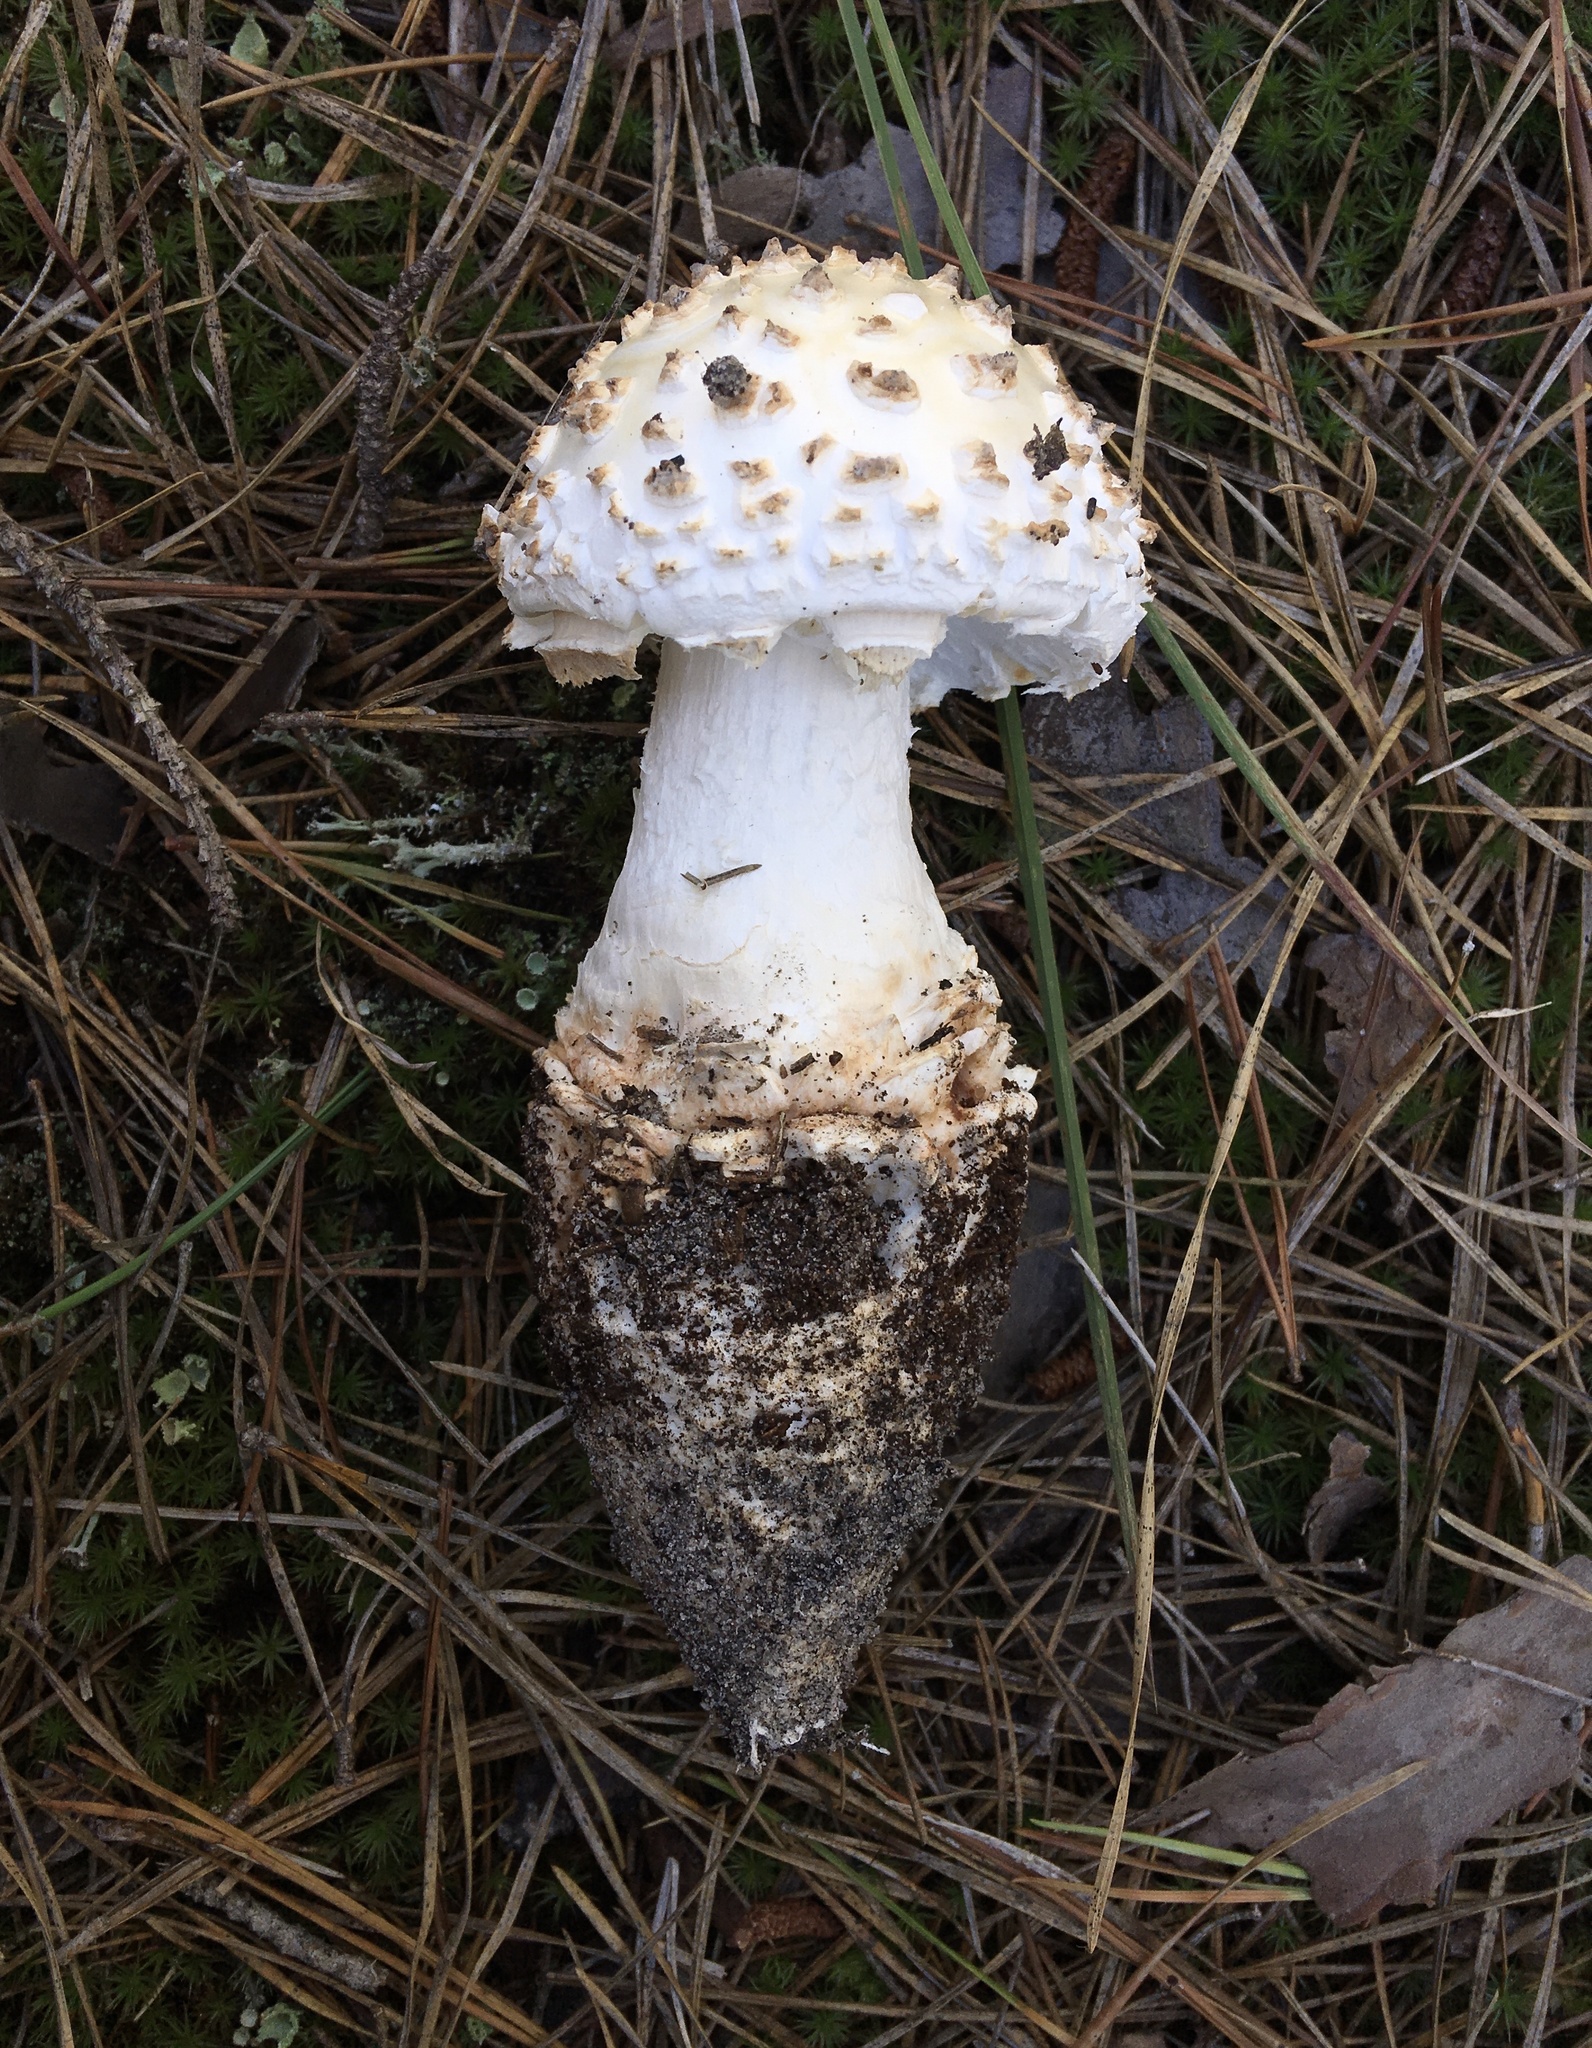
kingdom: Fungi
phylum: Basidiomycota
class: Agaricomycetes
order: Agaricales
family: Amanitaceae
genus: Amanita
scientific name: Amanita cokeri
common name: Coker's amanita
